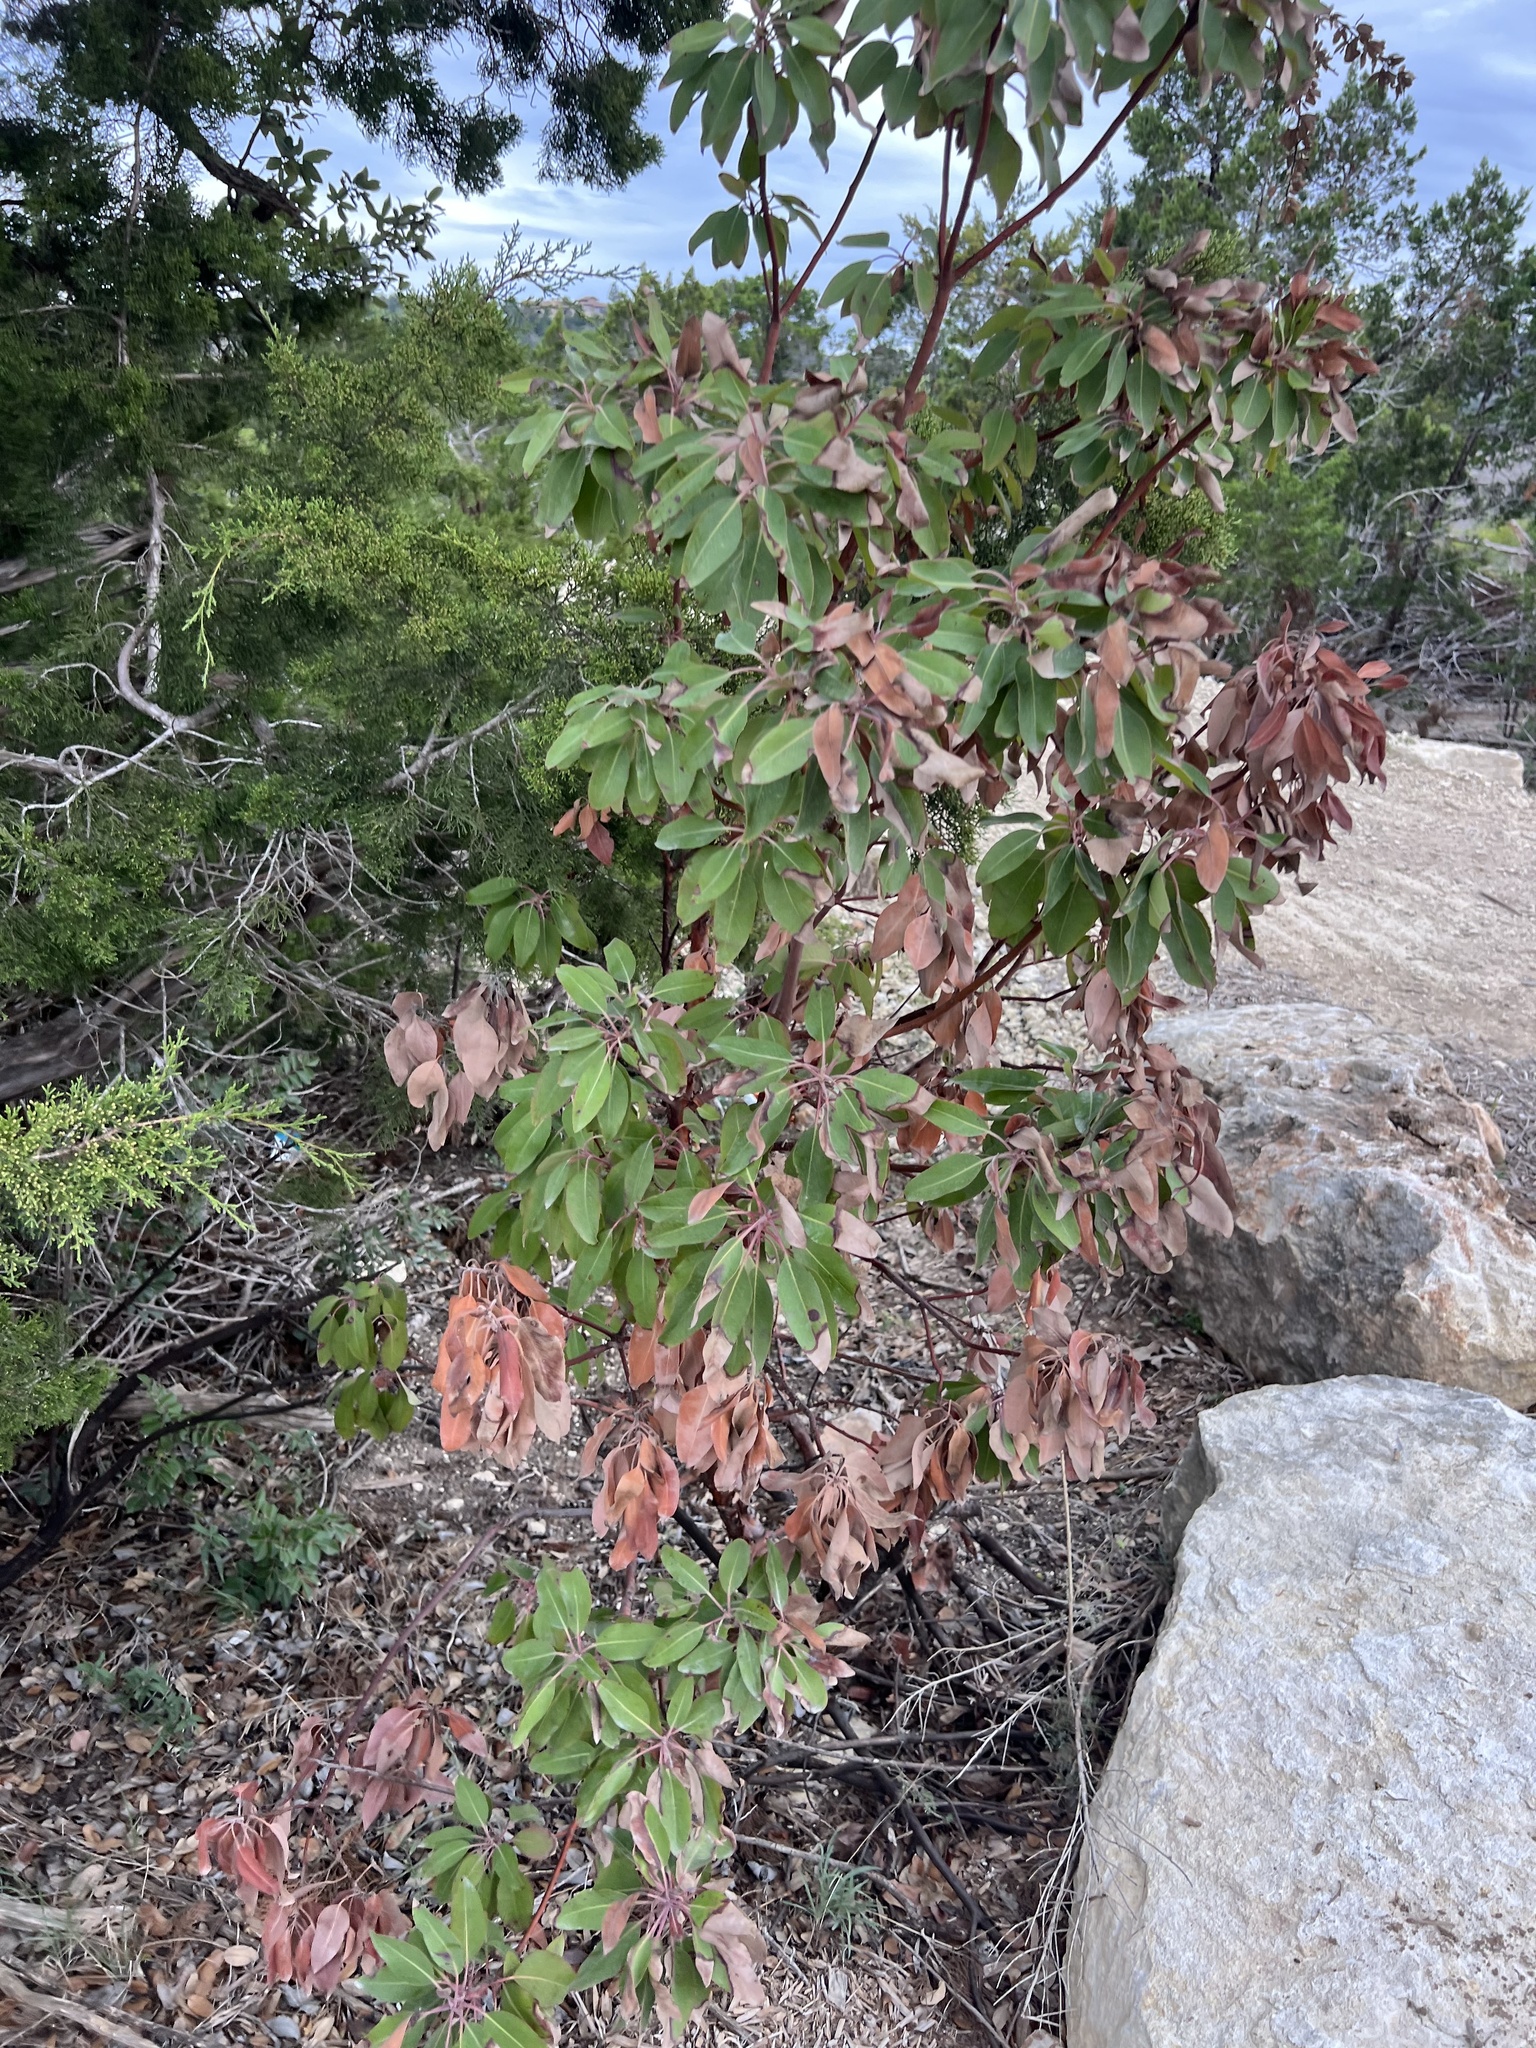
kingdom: Plantae
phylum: Tracheophyta
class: Magnoliopsida
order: Ericales
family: Ericaceae
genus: Arbutus
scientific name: Arbutus xalapensis
